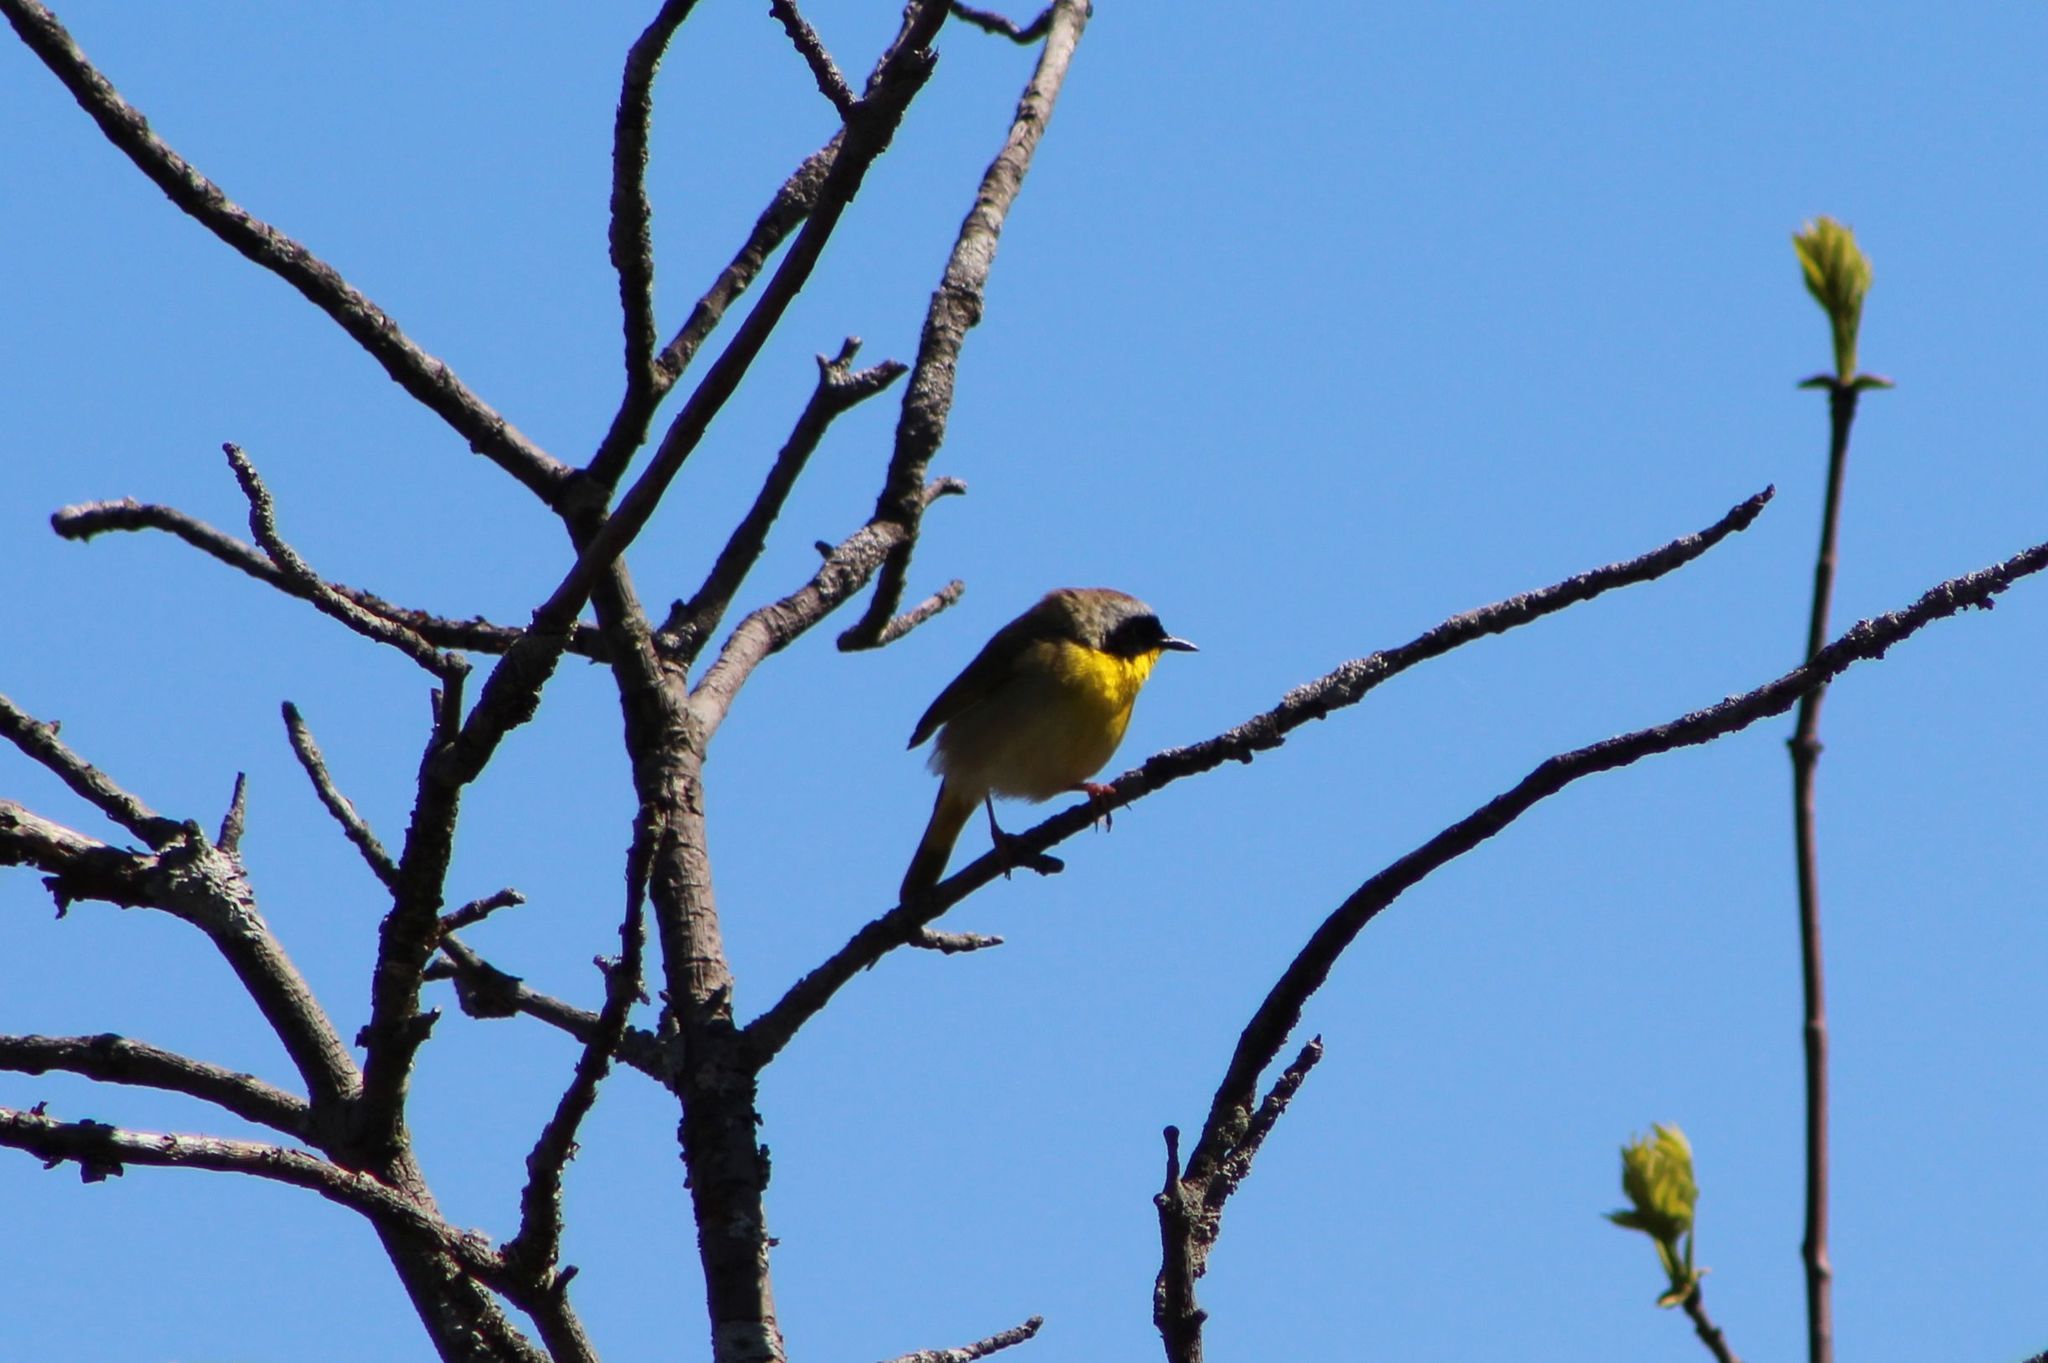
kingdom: Animalia
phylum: Chordata
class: Aves
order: Passeriformes
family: Parulidae
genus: Geothlypis
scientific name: Geothlypis trichas
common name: Common yellowthroat
